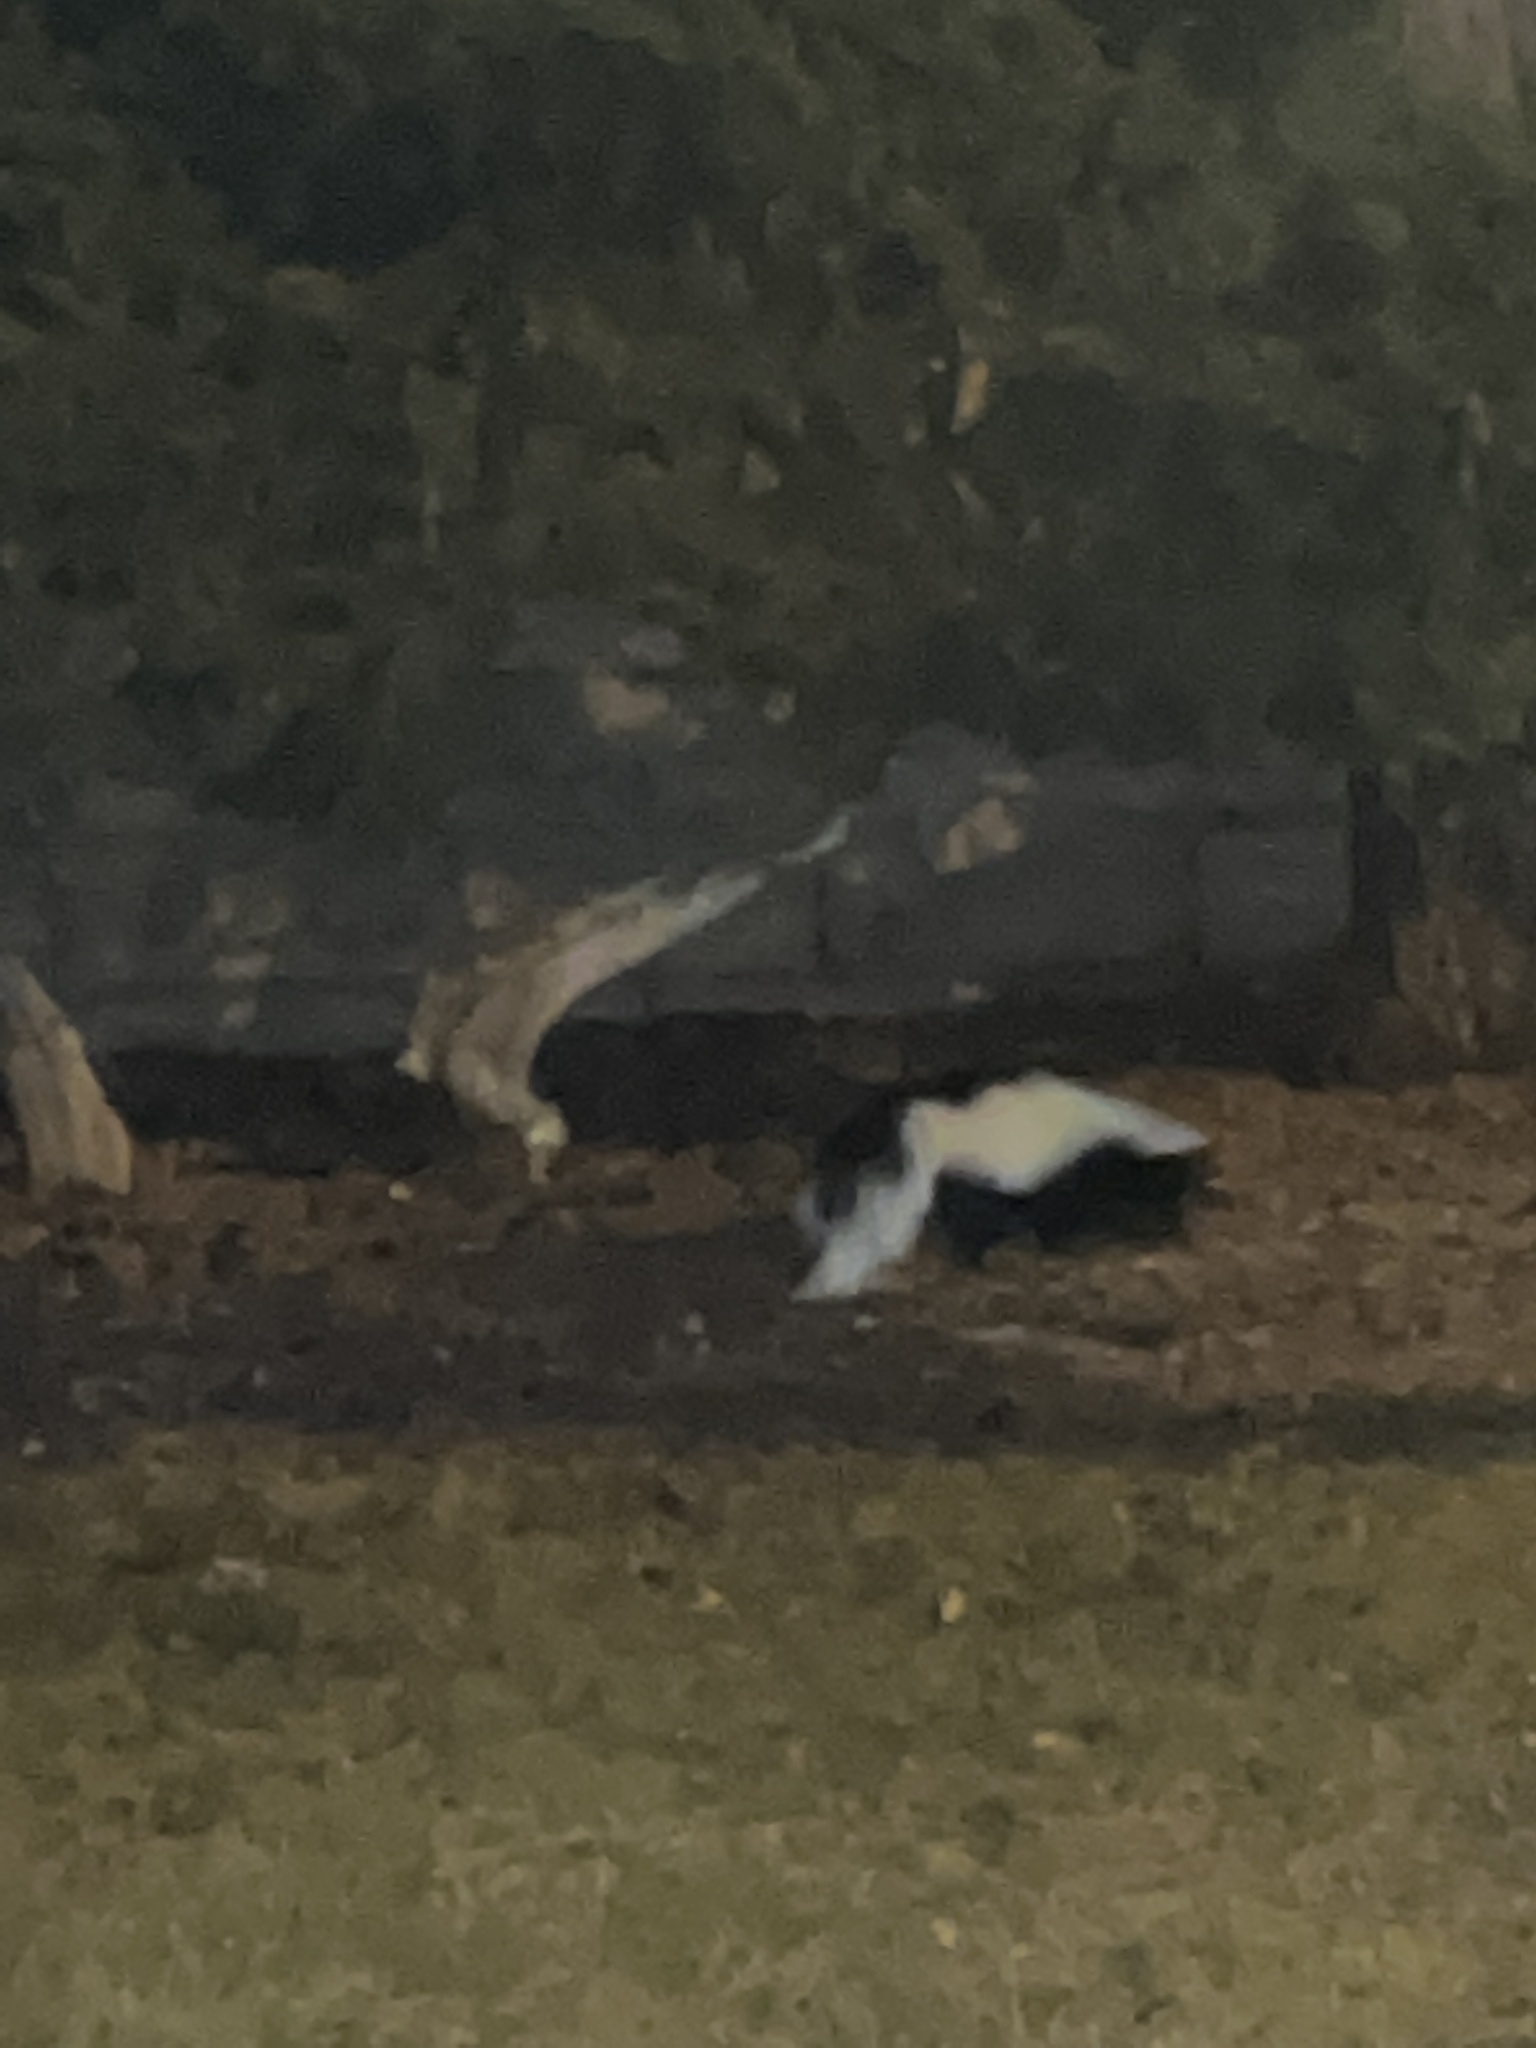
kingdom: Animalia
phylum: Chordata
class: Mammalia
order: Carnivora
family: Mephitidae
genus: Mephitis
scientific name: Mephitis mephitis
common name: Striped skunk
